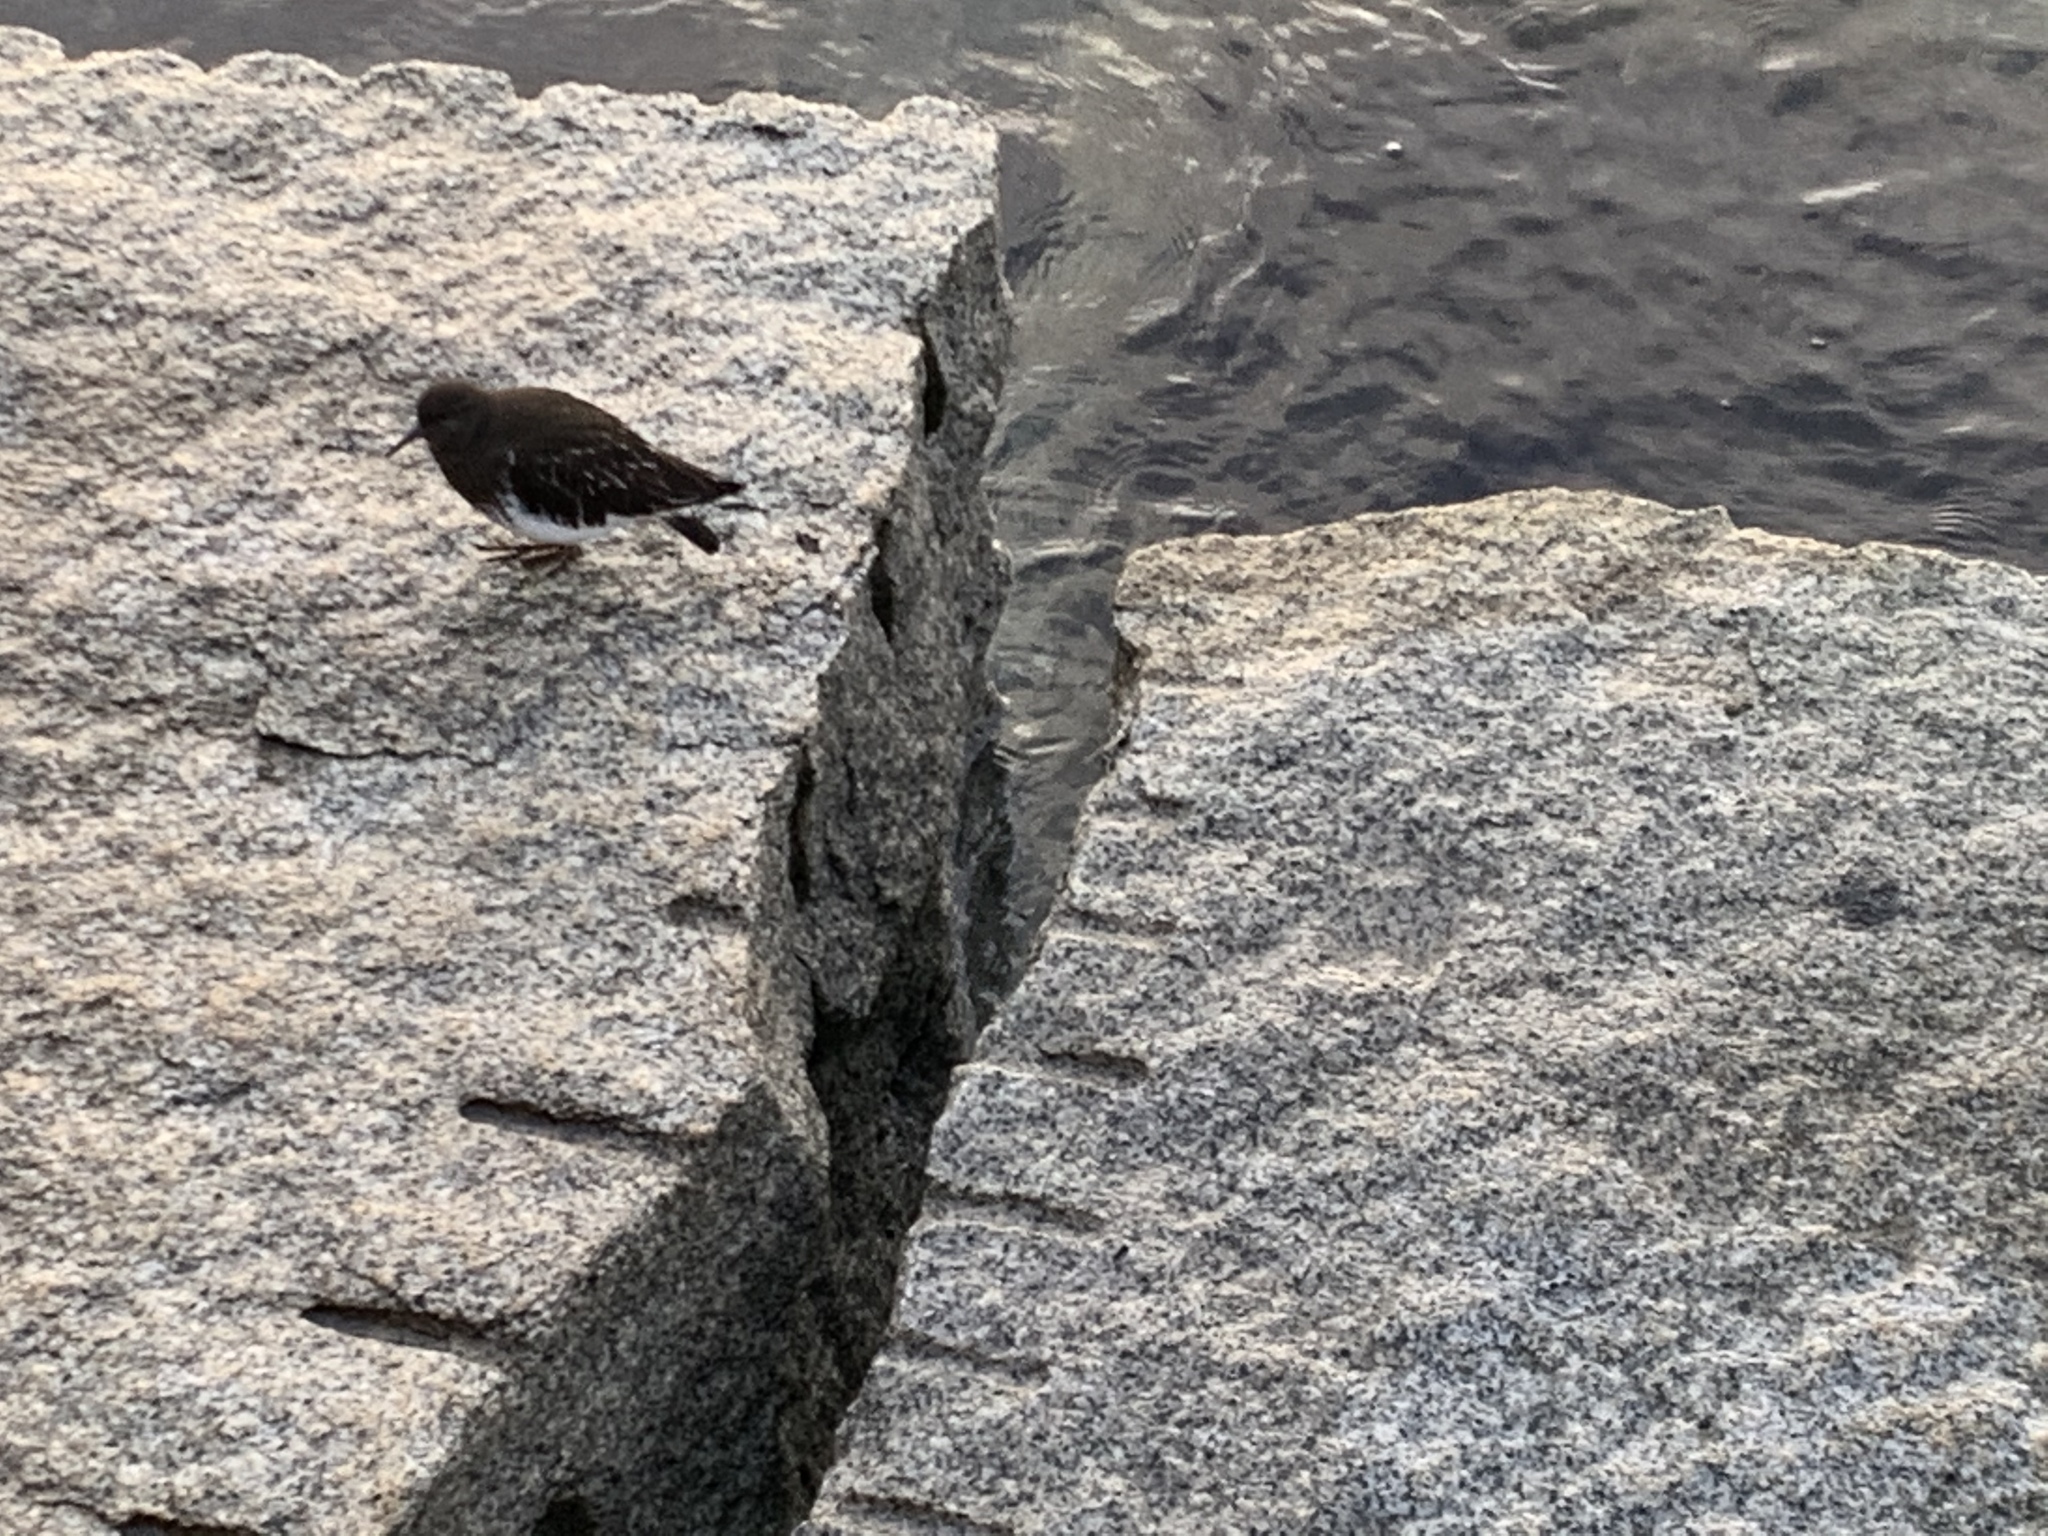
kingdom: Animalia
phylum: Chordata
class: Aves
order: Charadriiformes
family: Scolopacidae
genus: Arenaria
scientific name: Arenaria melanocephala
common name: Black turnstone
